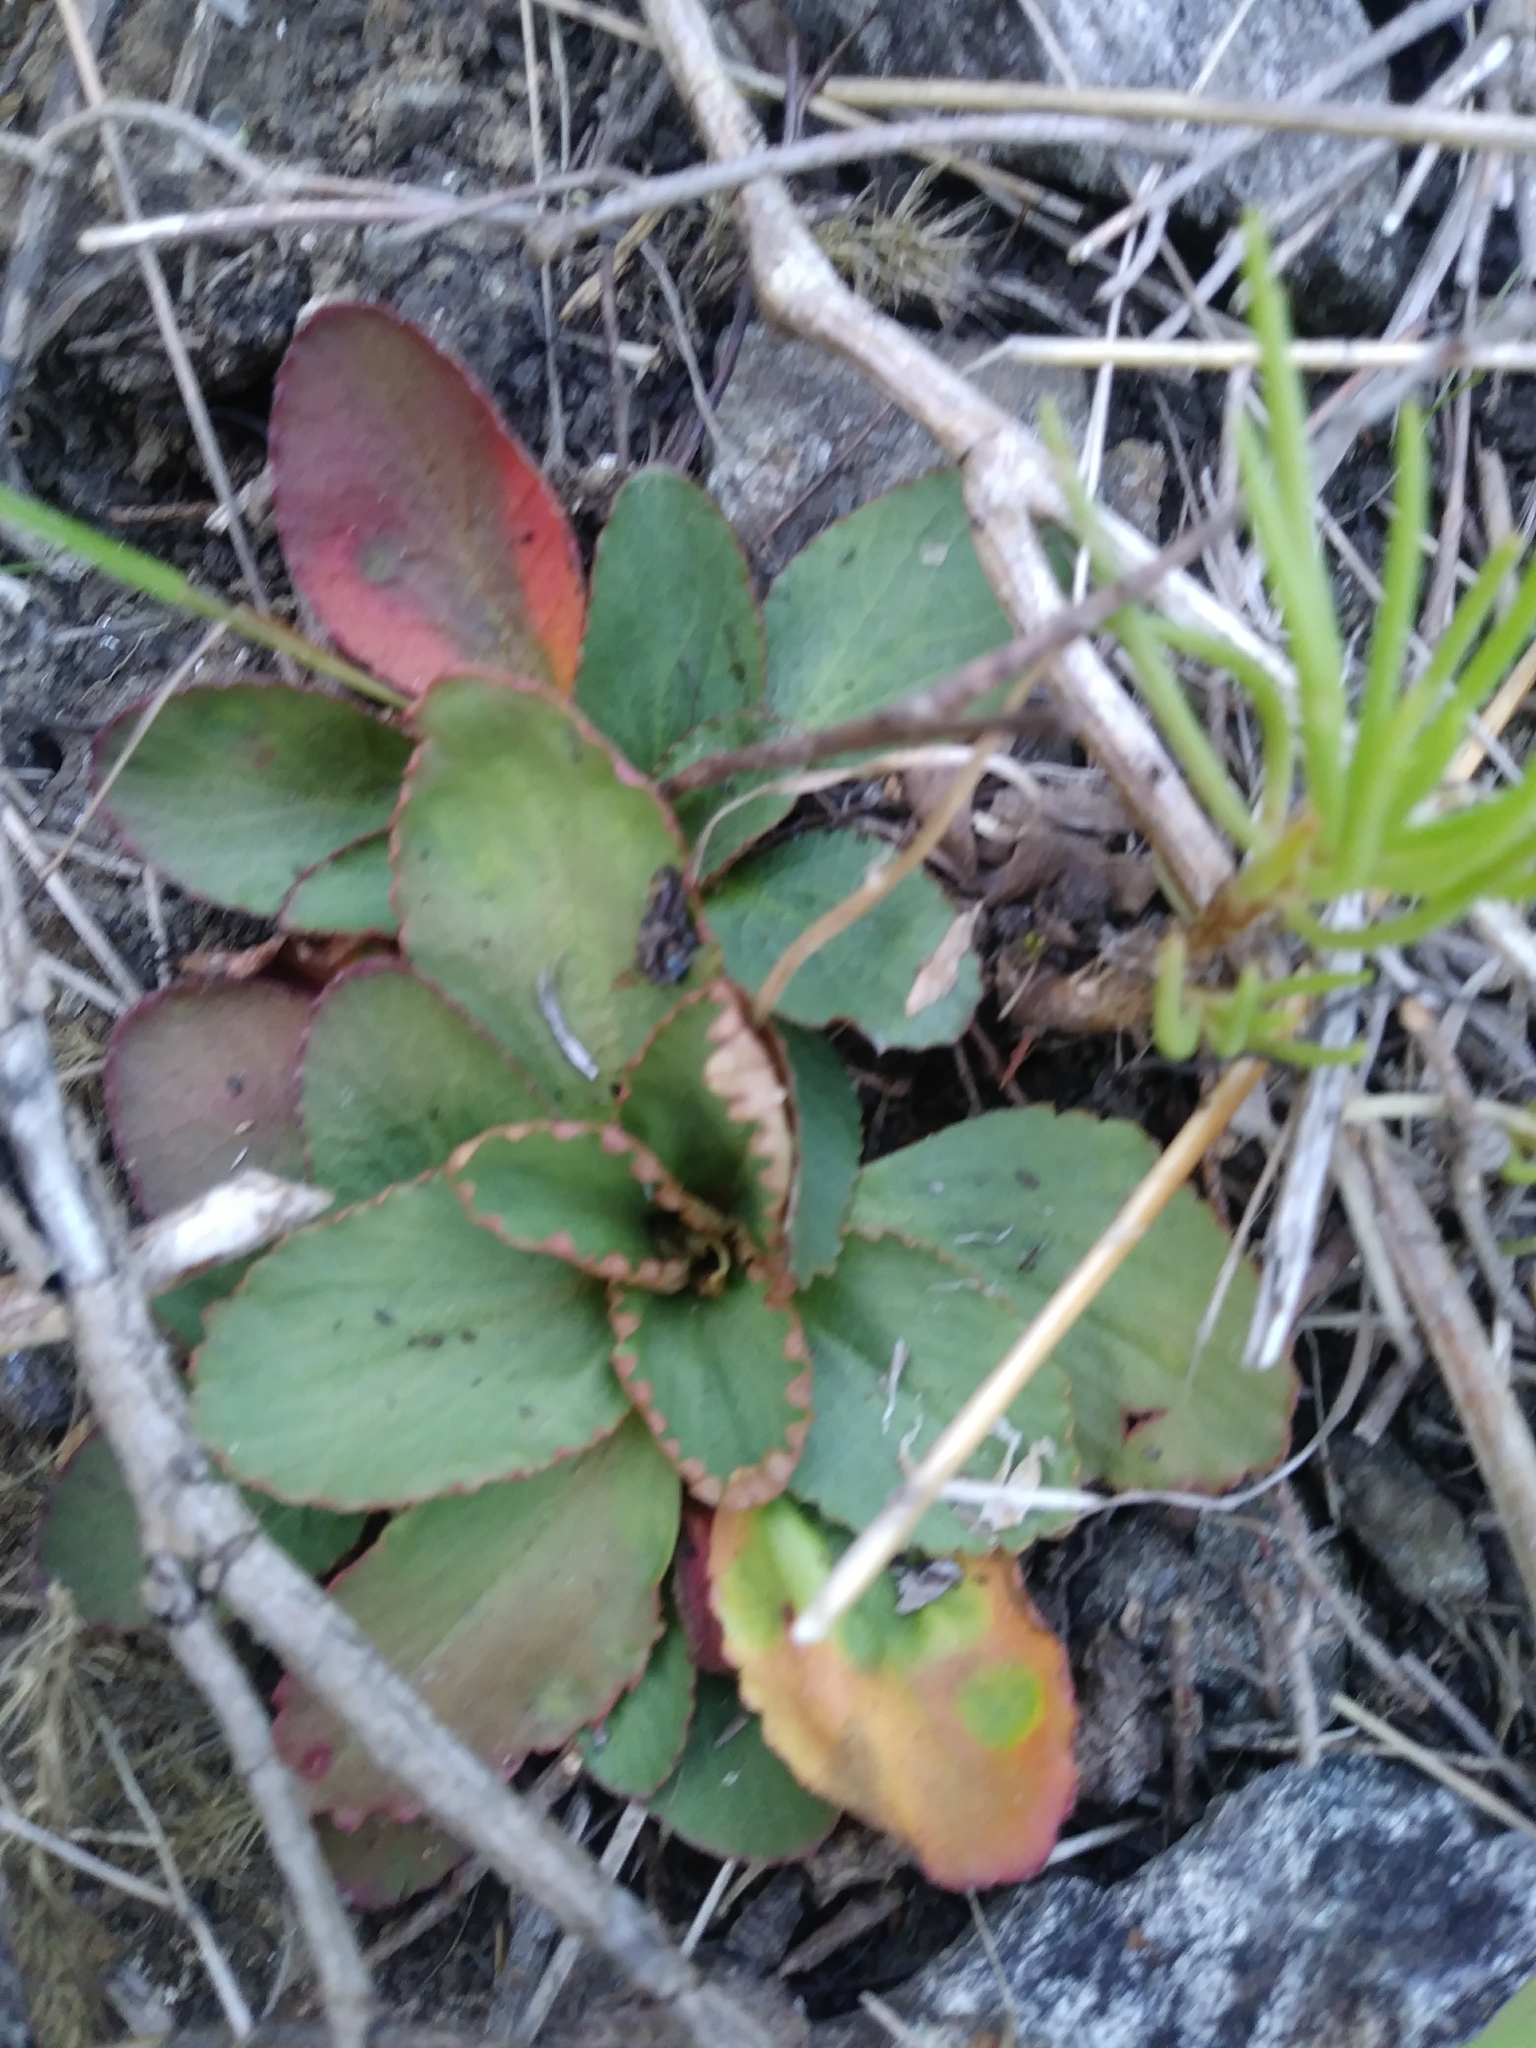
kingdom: Plantae
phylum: Tracheophyta
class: Magnoliopsida
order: Saxifragales
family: Saxifragaceae
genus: Micranthes
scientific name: Micranthes virginiensis
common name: Early saxifrage
